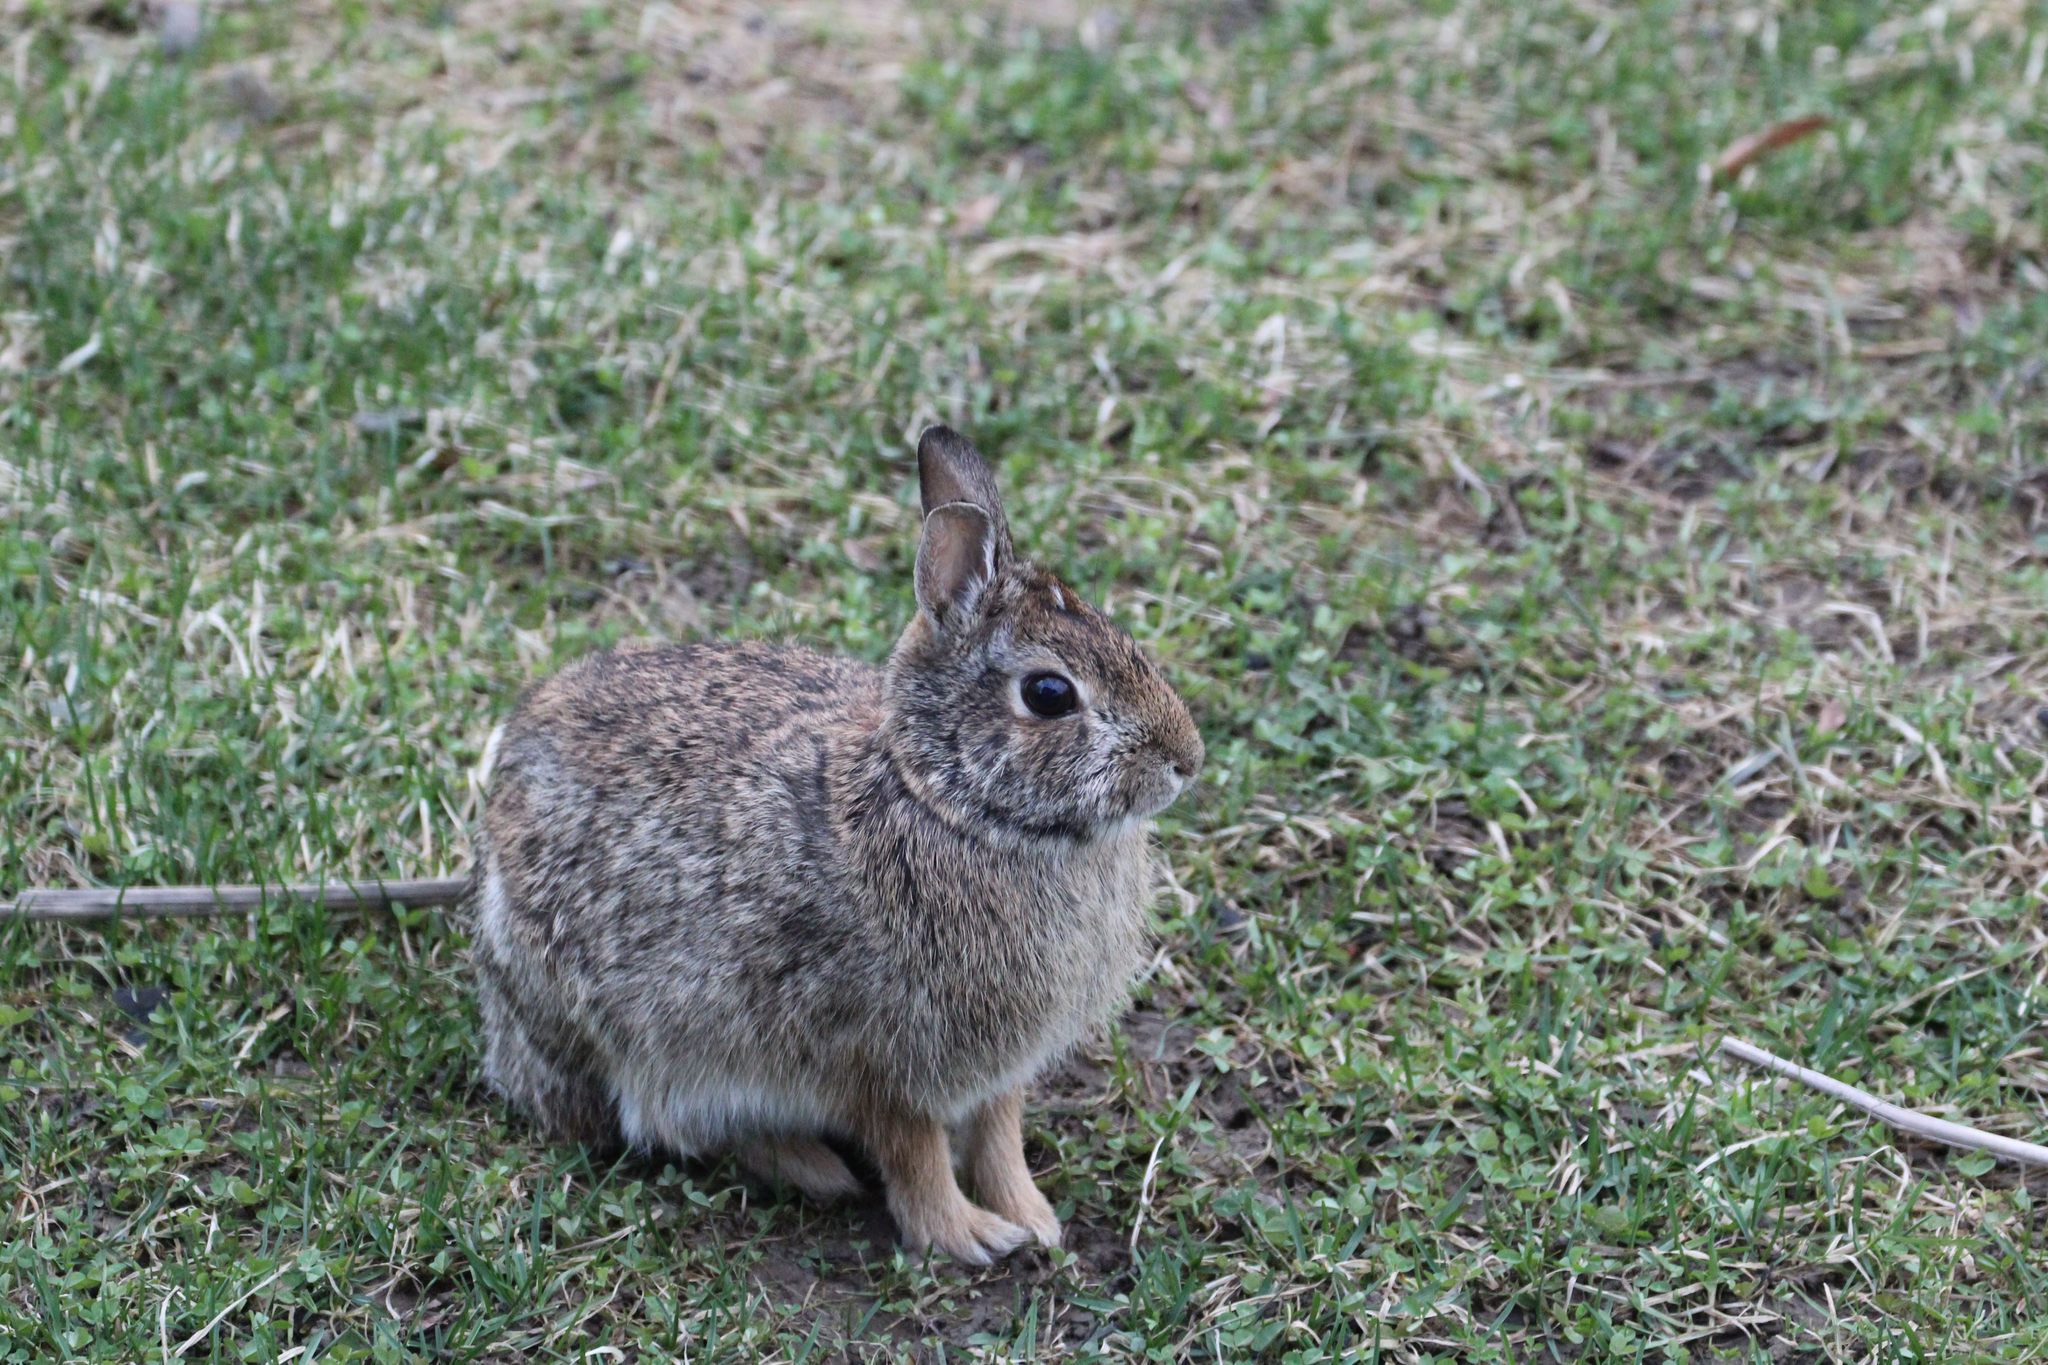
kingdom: Animalia
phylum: Chordata
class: Mammalia
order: Lagomorpha
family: Leporidae
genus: Sylvilagus
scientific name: Sylvilagus floridanus
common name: Eastern cottontail
